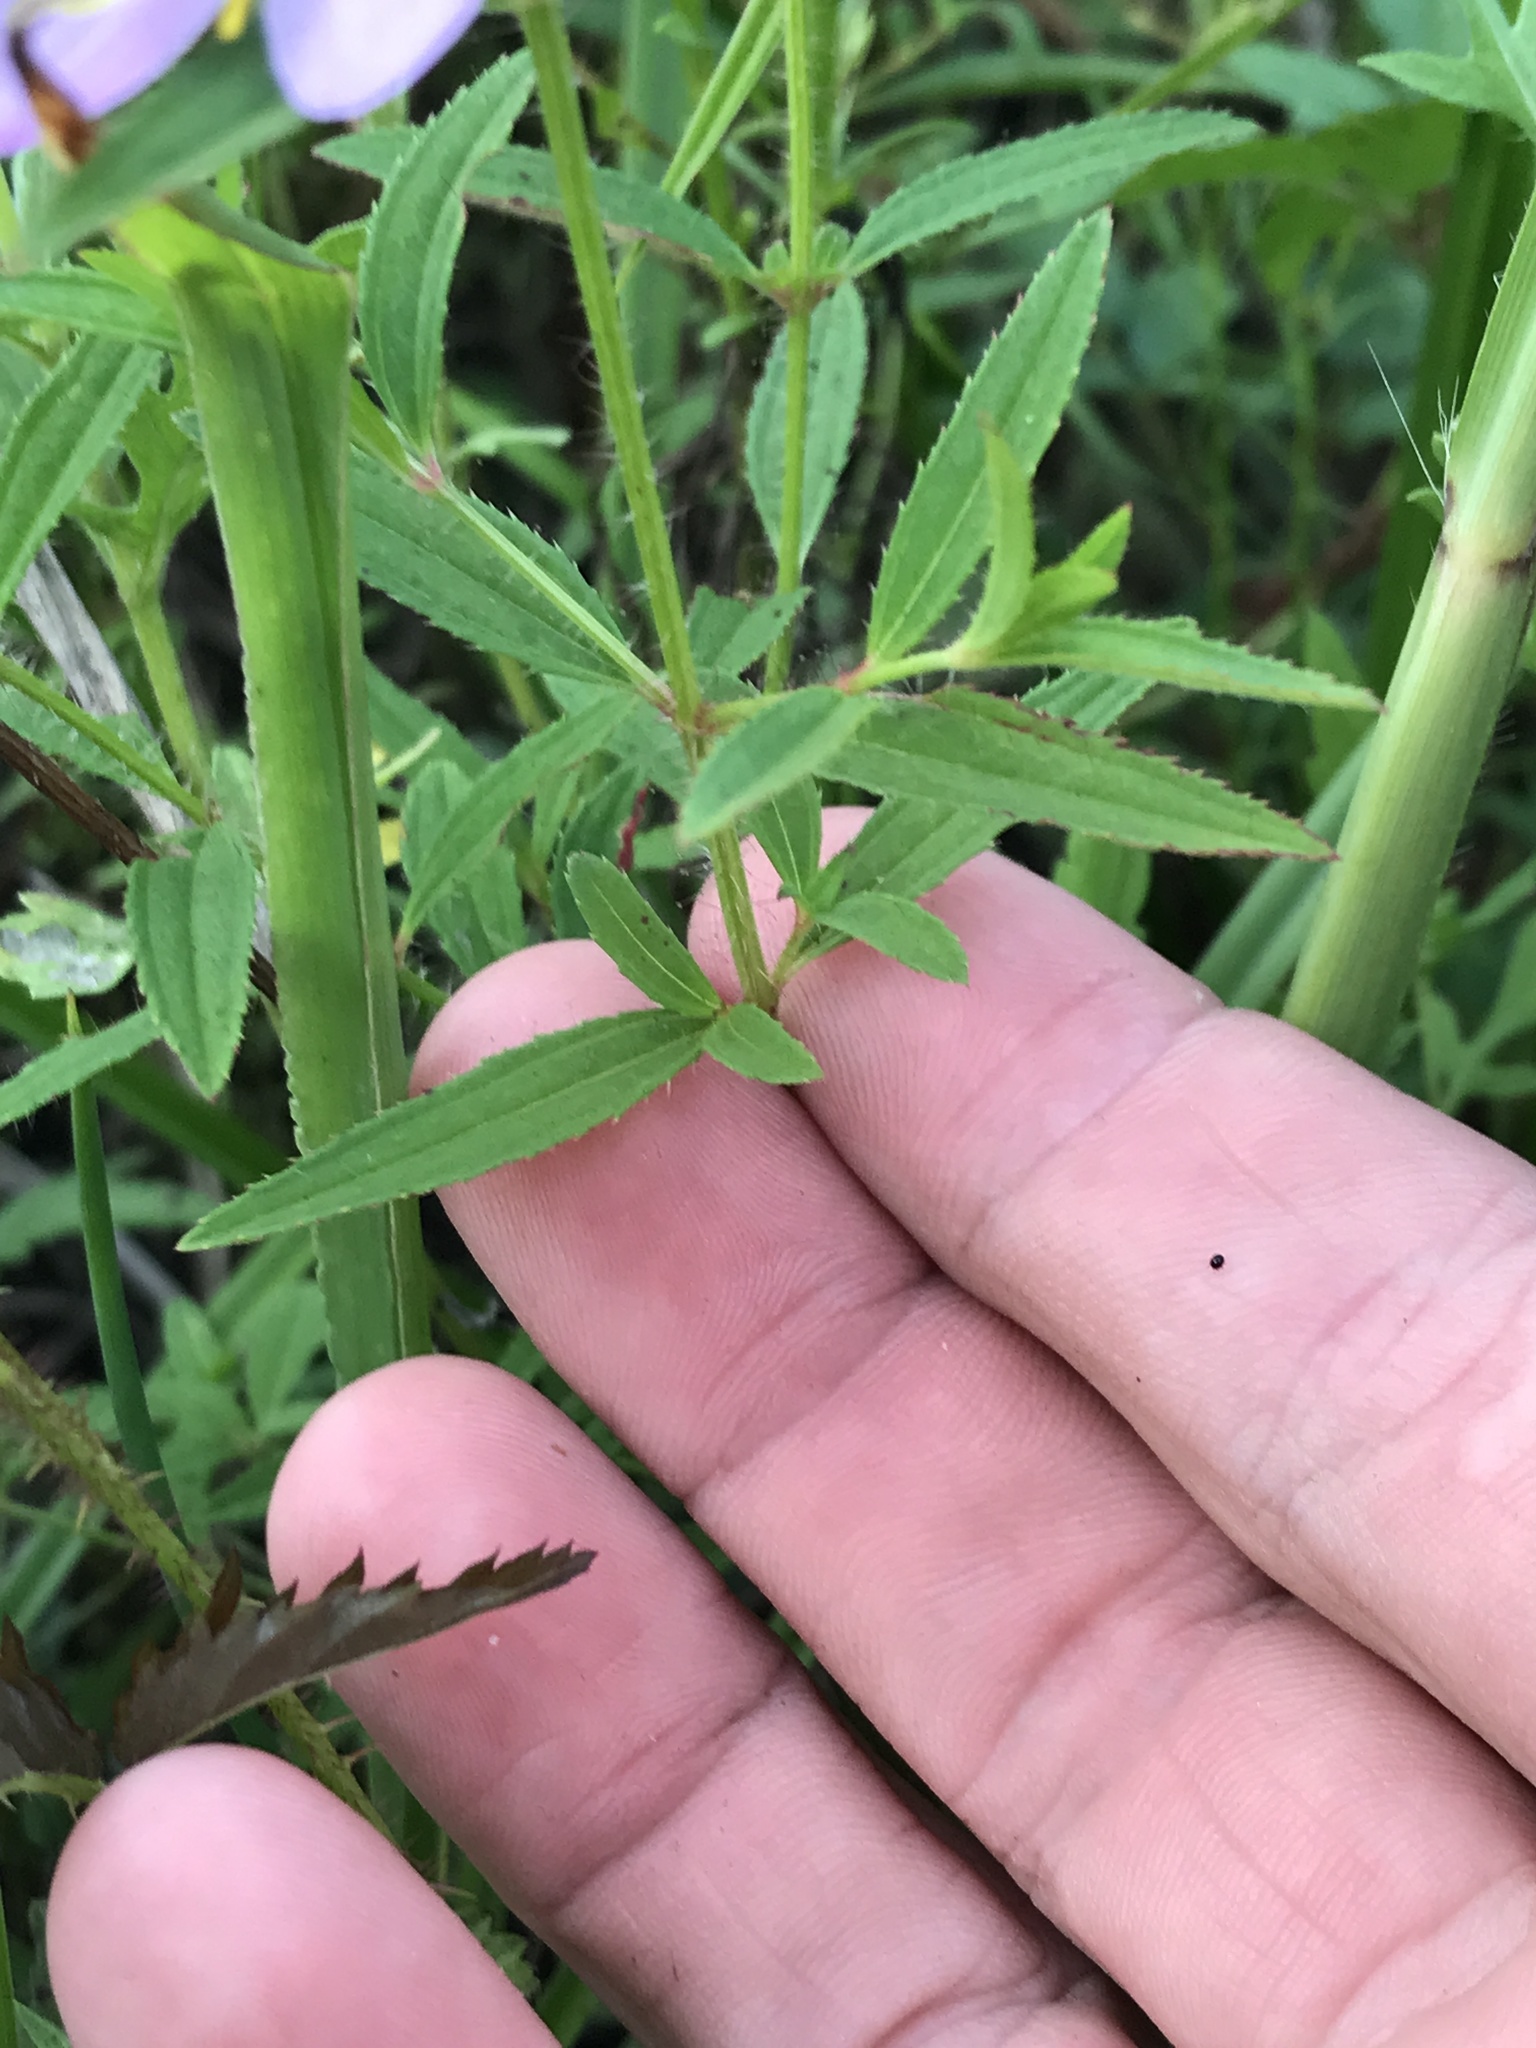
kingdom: Plantae
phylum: Tracheophyta
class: Magnoliopsida
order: Myrtales
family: Melastomataceae
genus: Rhexia
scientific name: Rhexia mariana
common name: Dull meadow-pitcher
